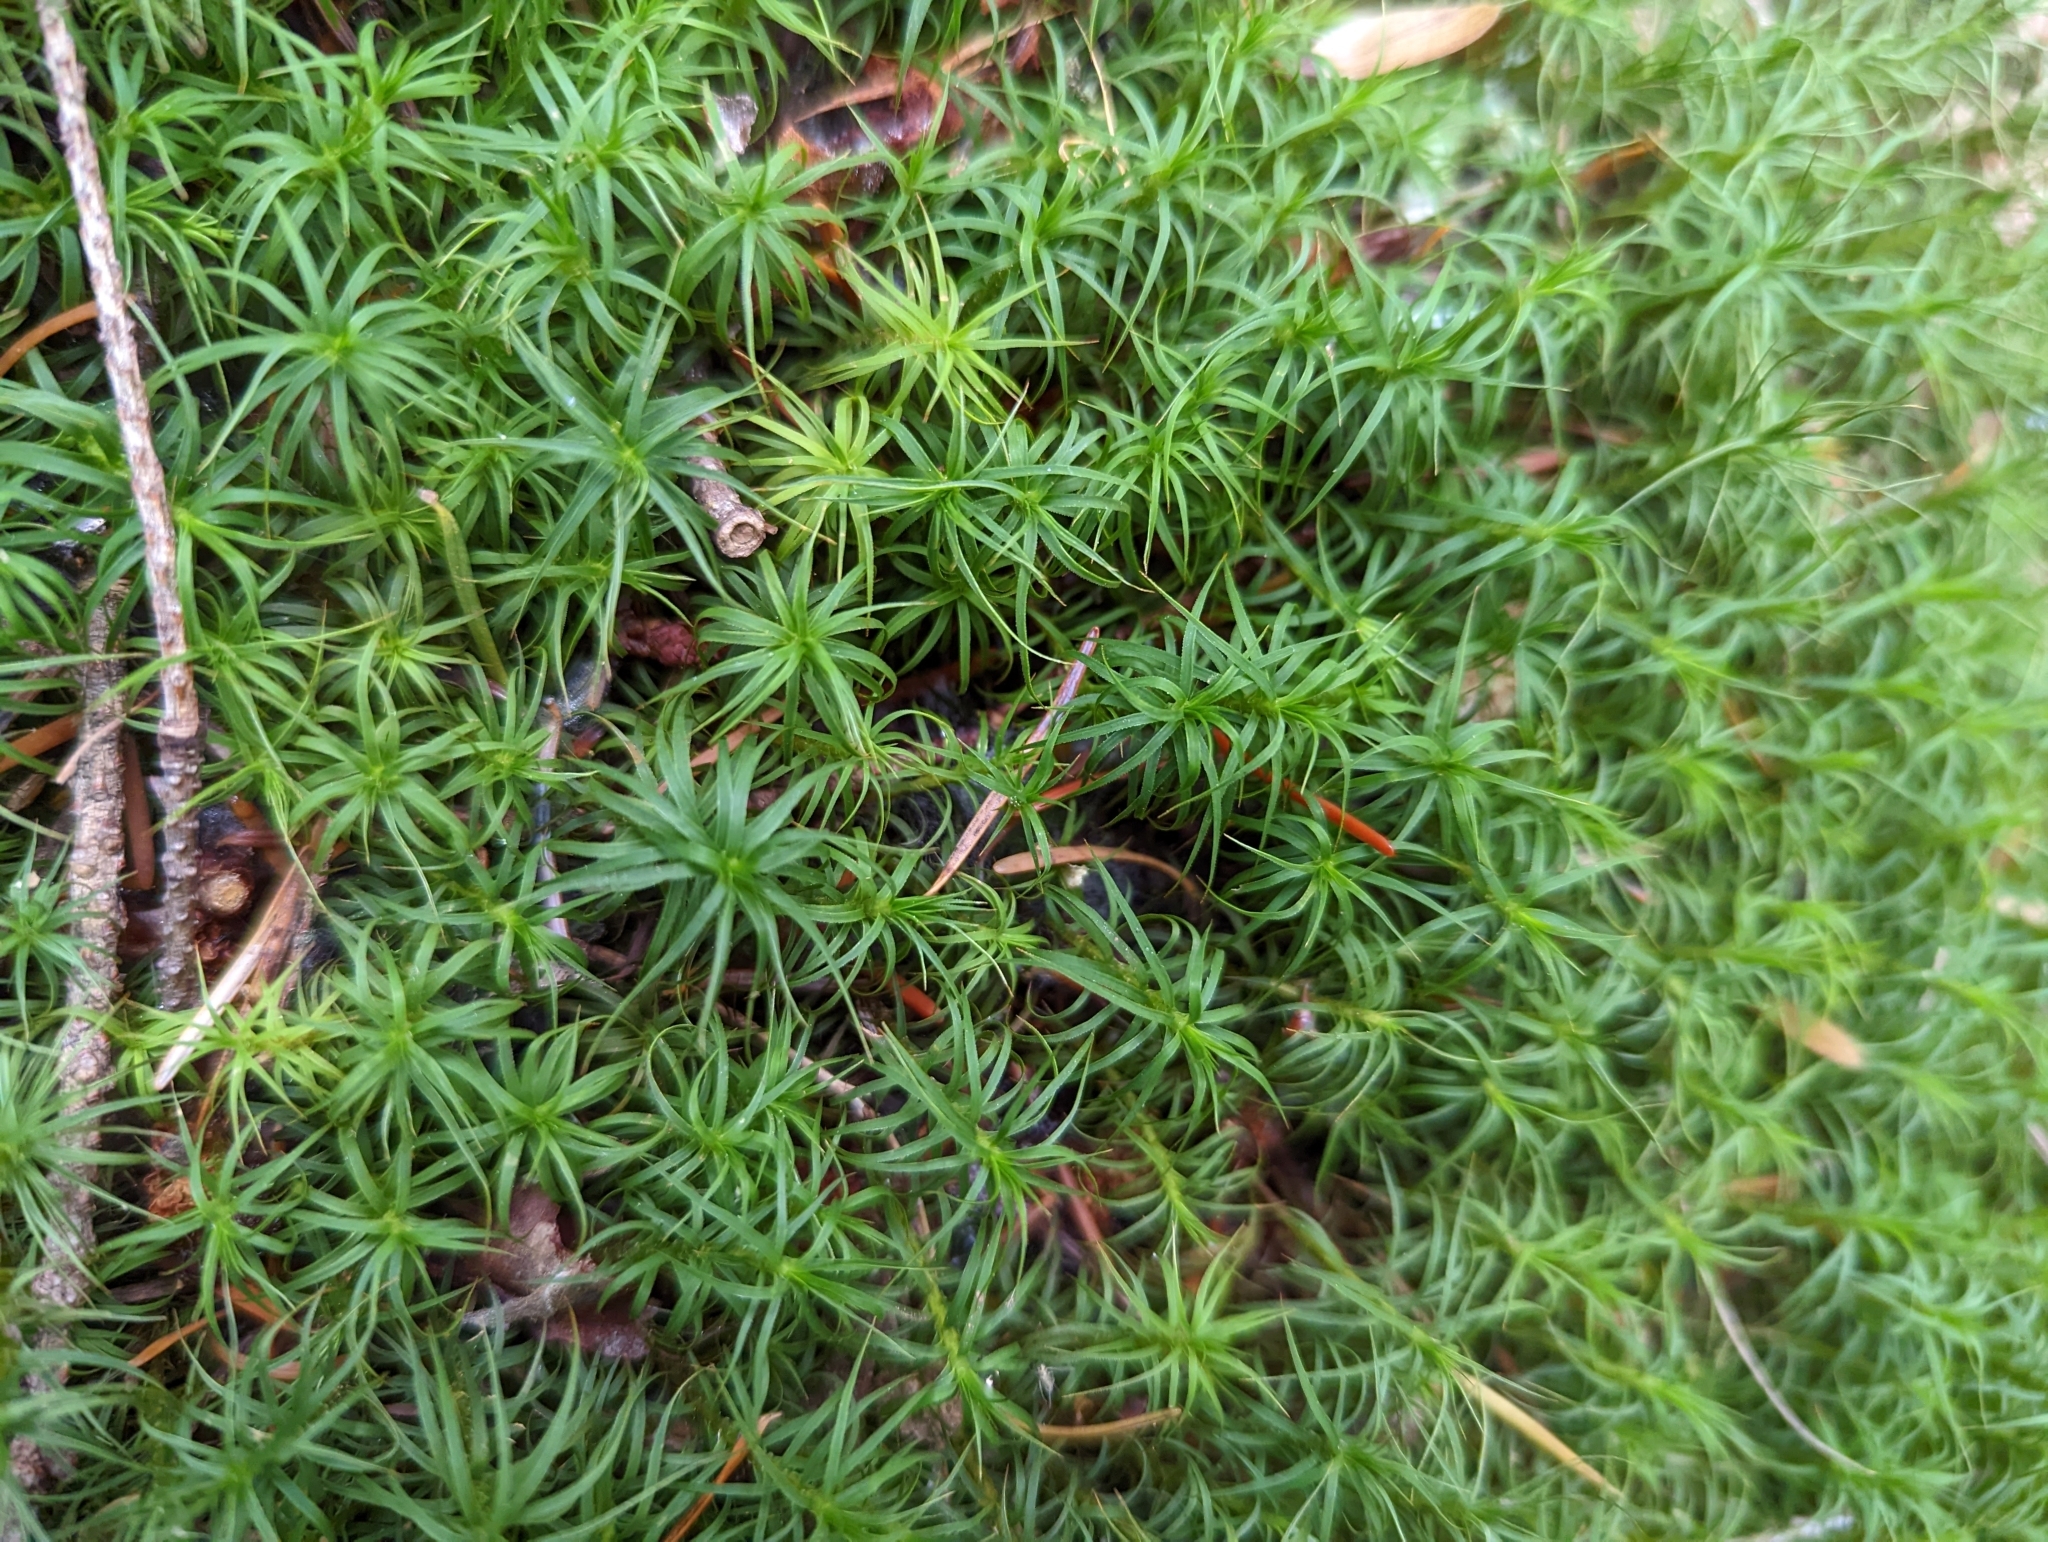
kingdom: Plantae
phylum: Bryophyta
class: Polytrichopsida
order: Polytrichales
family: Polytrichaceae
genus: Polytrichastrum
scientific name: Polytrichastrum alpinum
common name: Alpine haircap
